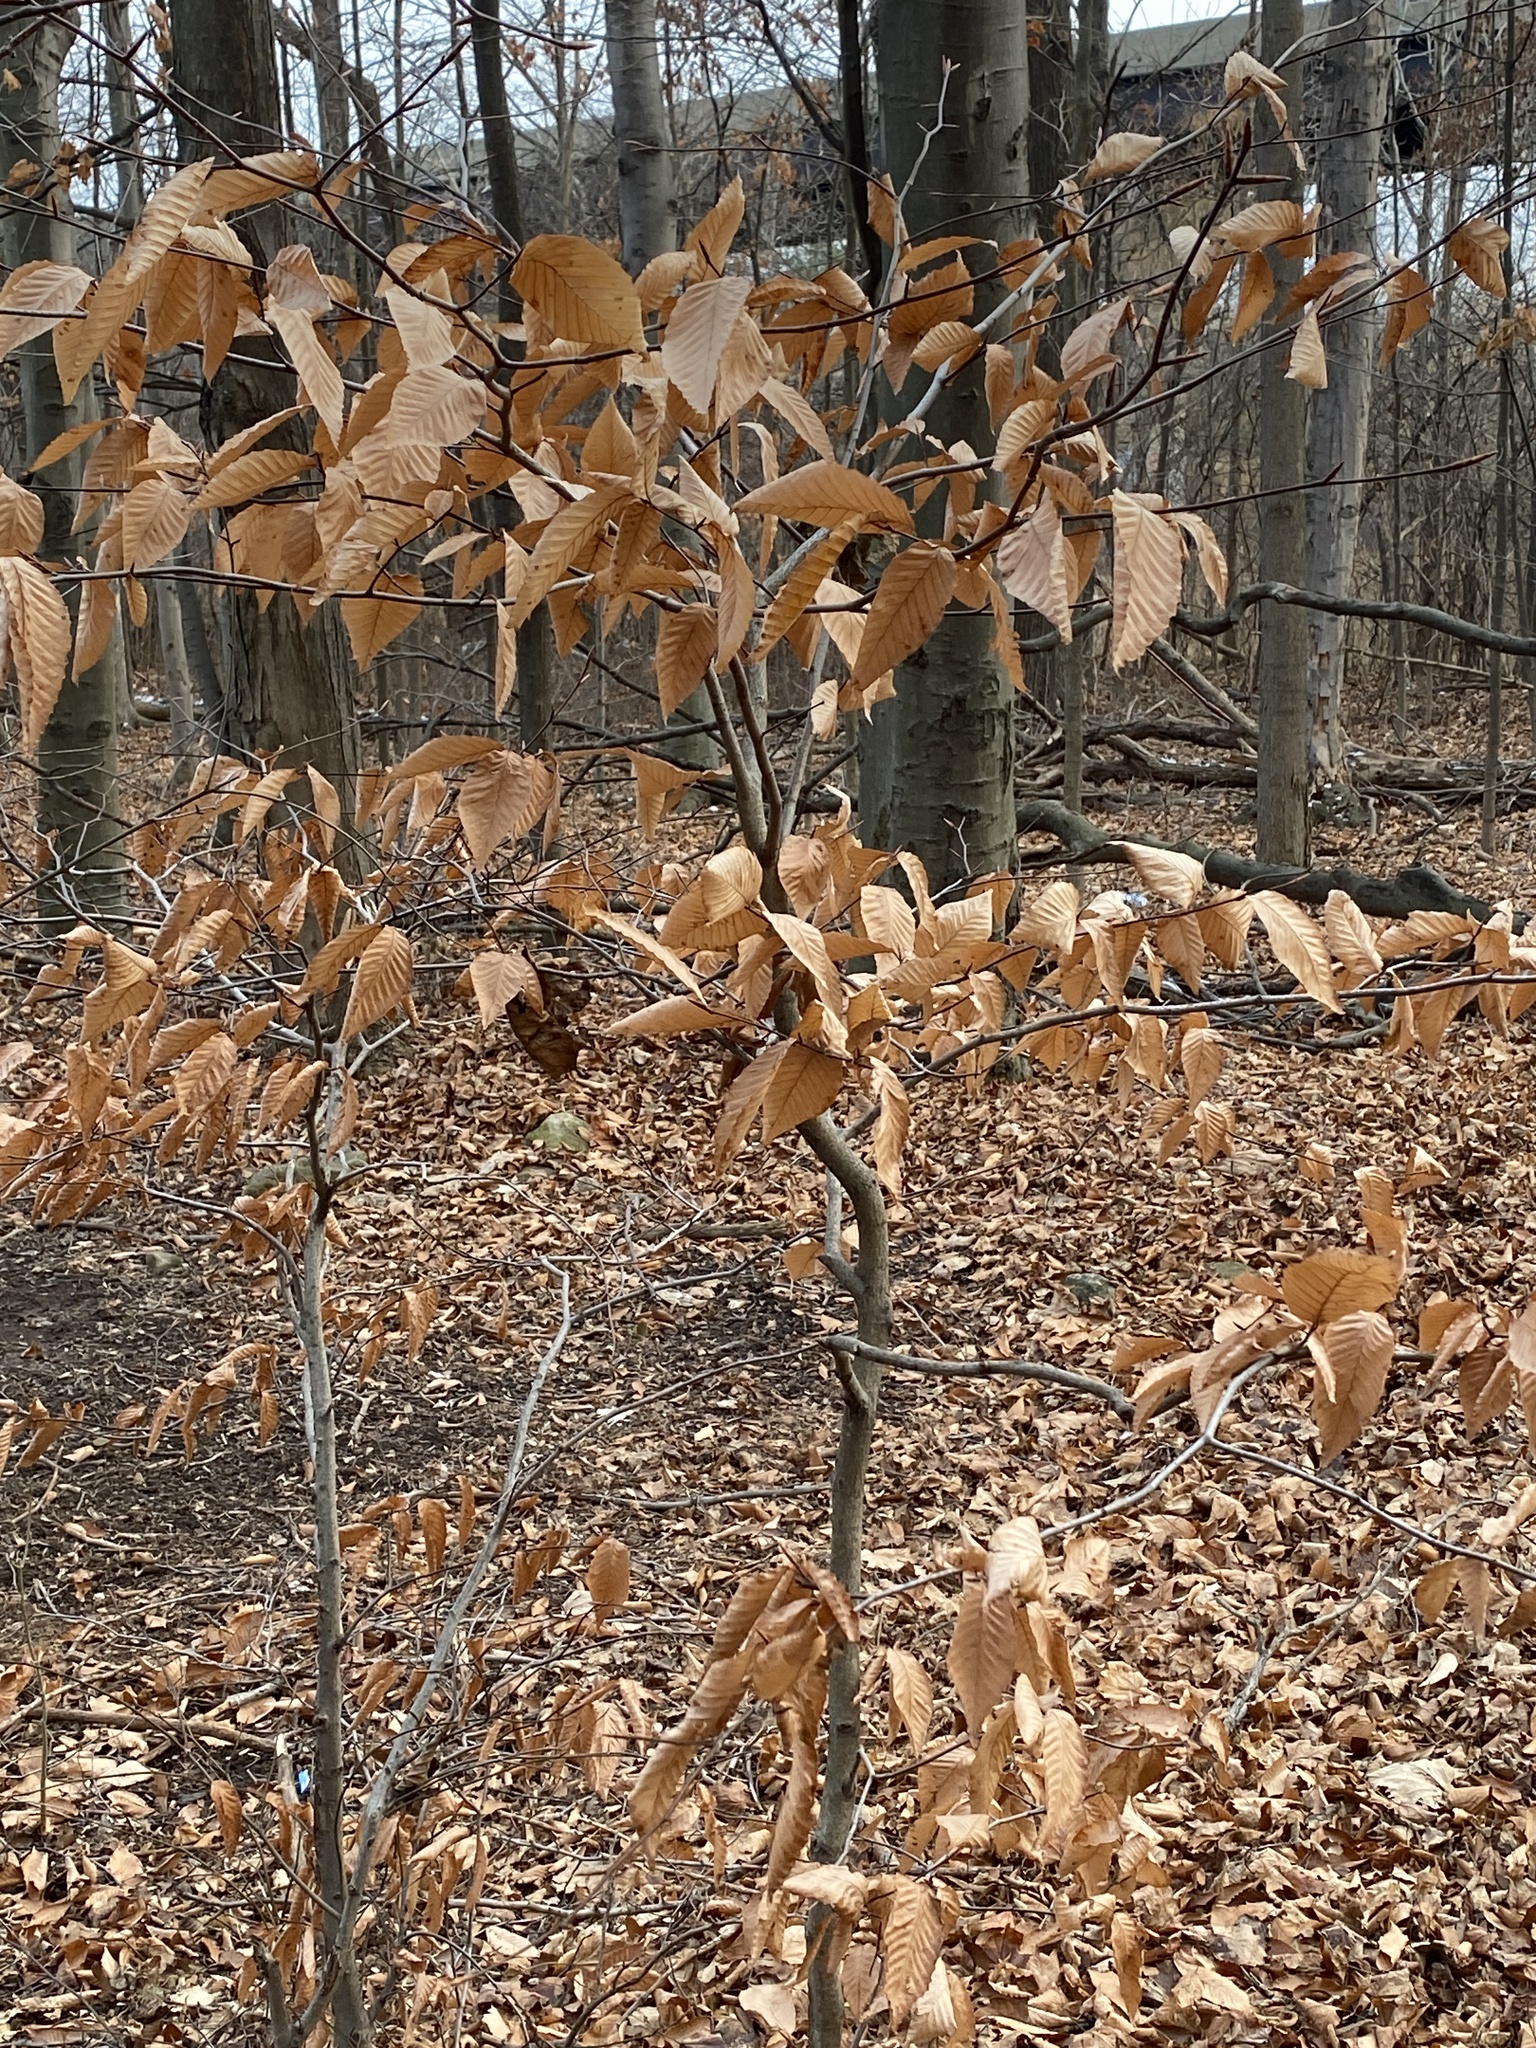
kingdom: Plantae
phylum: Tracheophyta
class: Magnoliopsida
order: Fagales
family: Fagaceae
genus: Fagus
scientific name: Fagus grandifolia
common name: American beech
